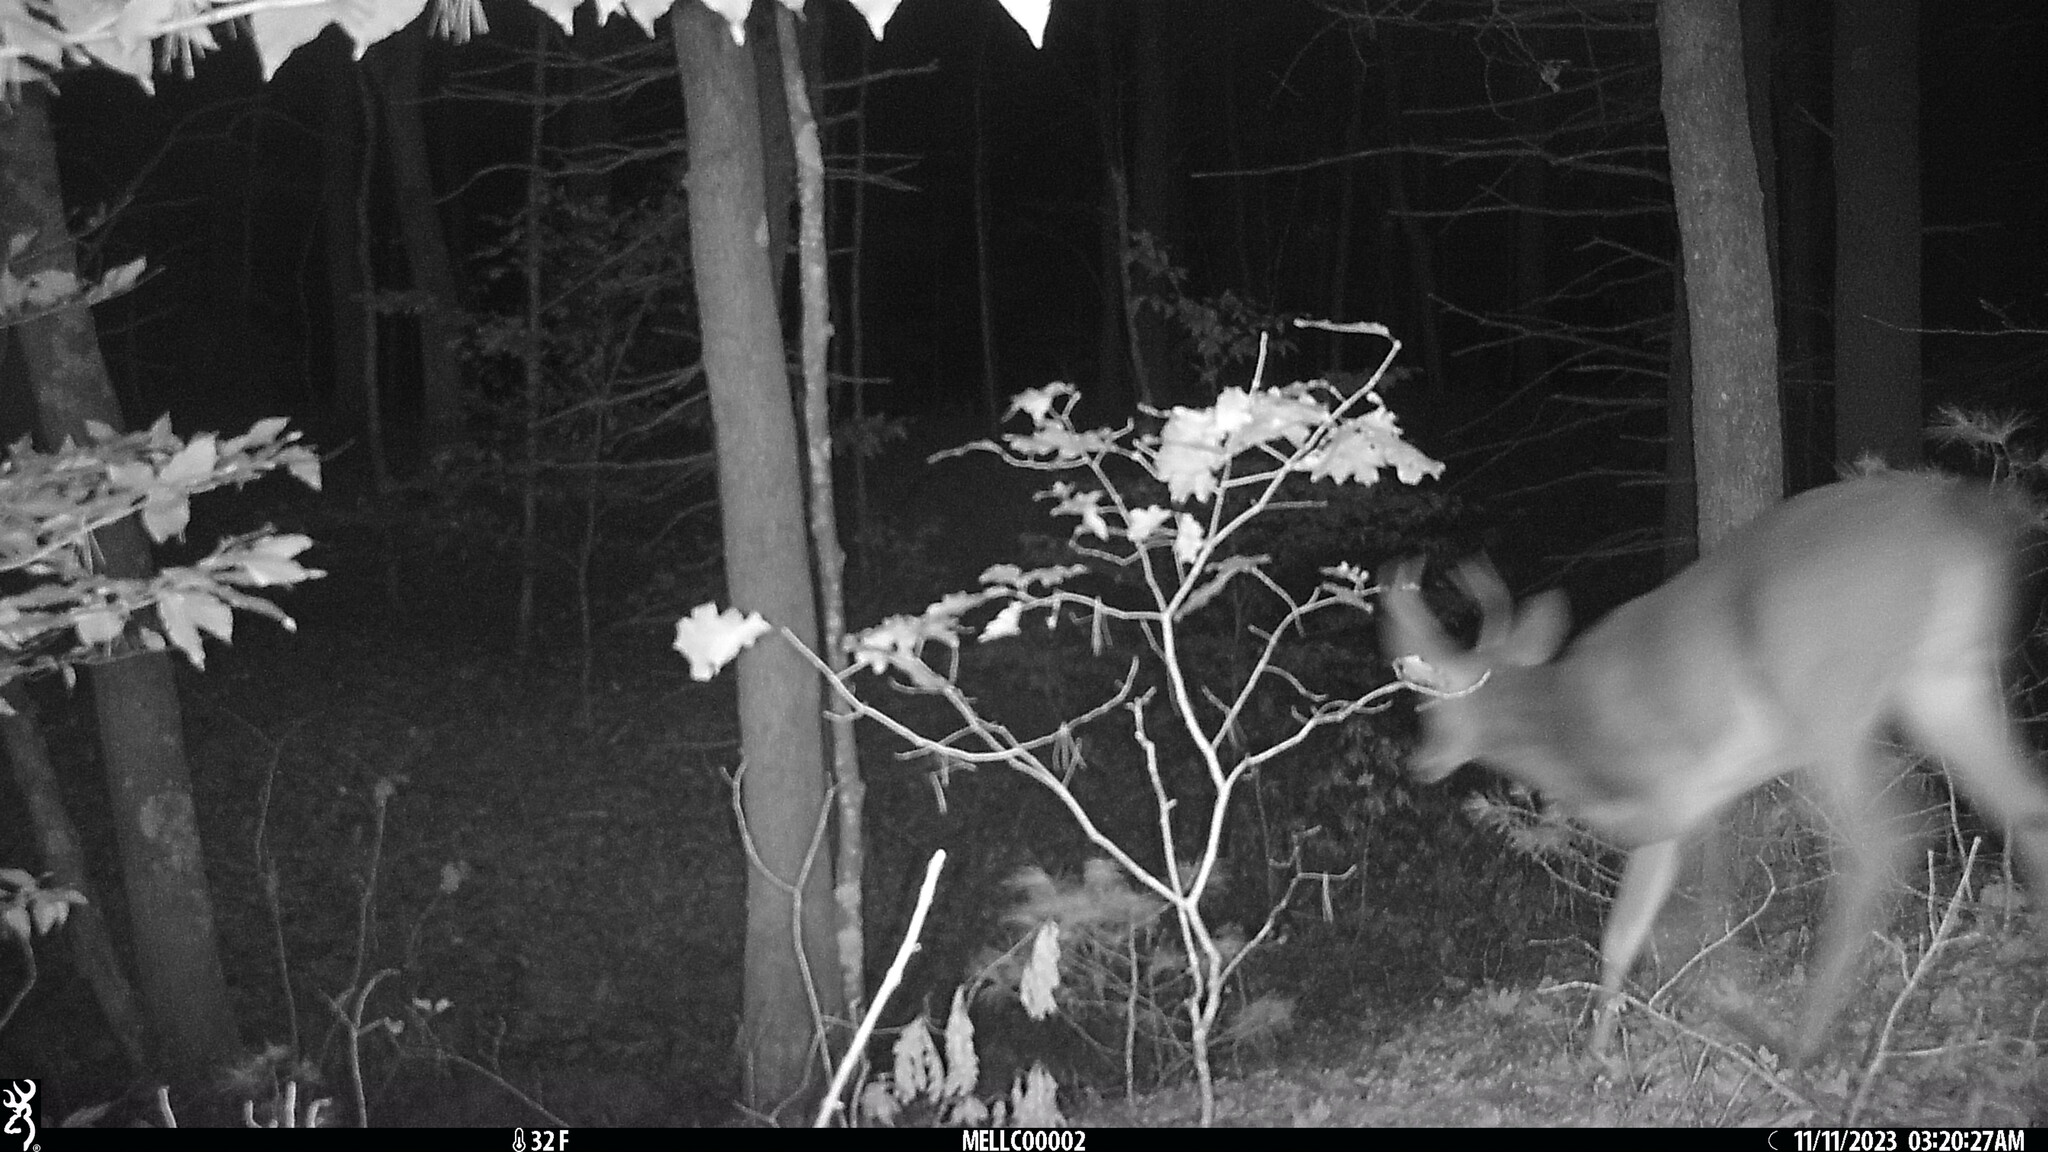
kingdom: Animalia
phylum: Chordata
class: Mammalia
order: Artiodactyla
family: Cervidae
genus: Odocoileus
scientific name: Odocoileus virginianus
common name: White-tailed deer
